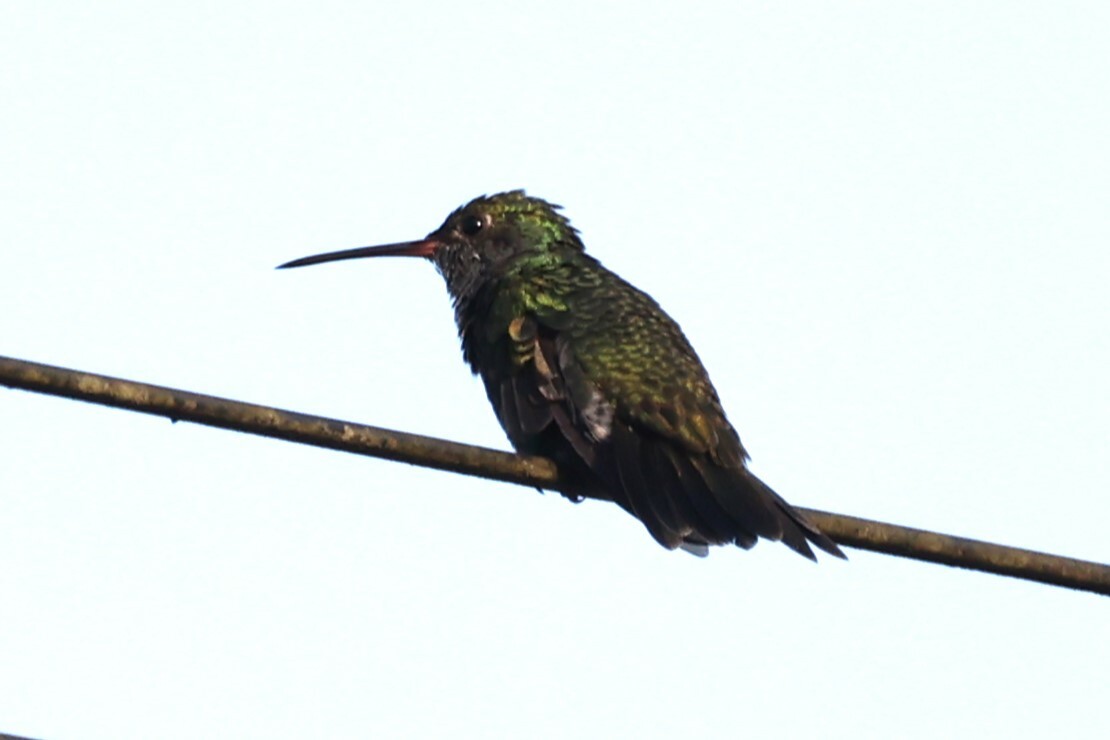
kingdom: Animalia
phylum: Chordata
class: Aves
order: Apodiformes
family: Trochilidae
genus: Chionomesa
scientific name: Chionomesa fimbriata
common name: Glittering-throated emerald
